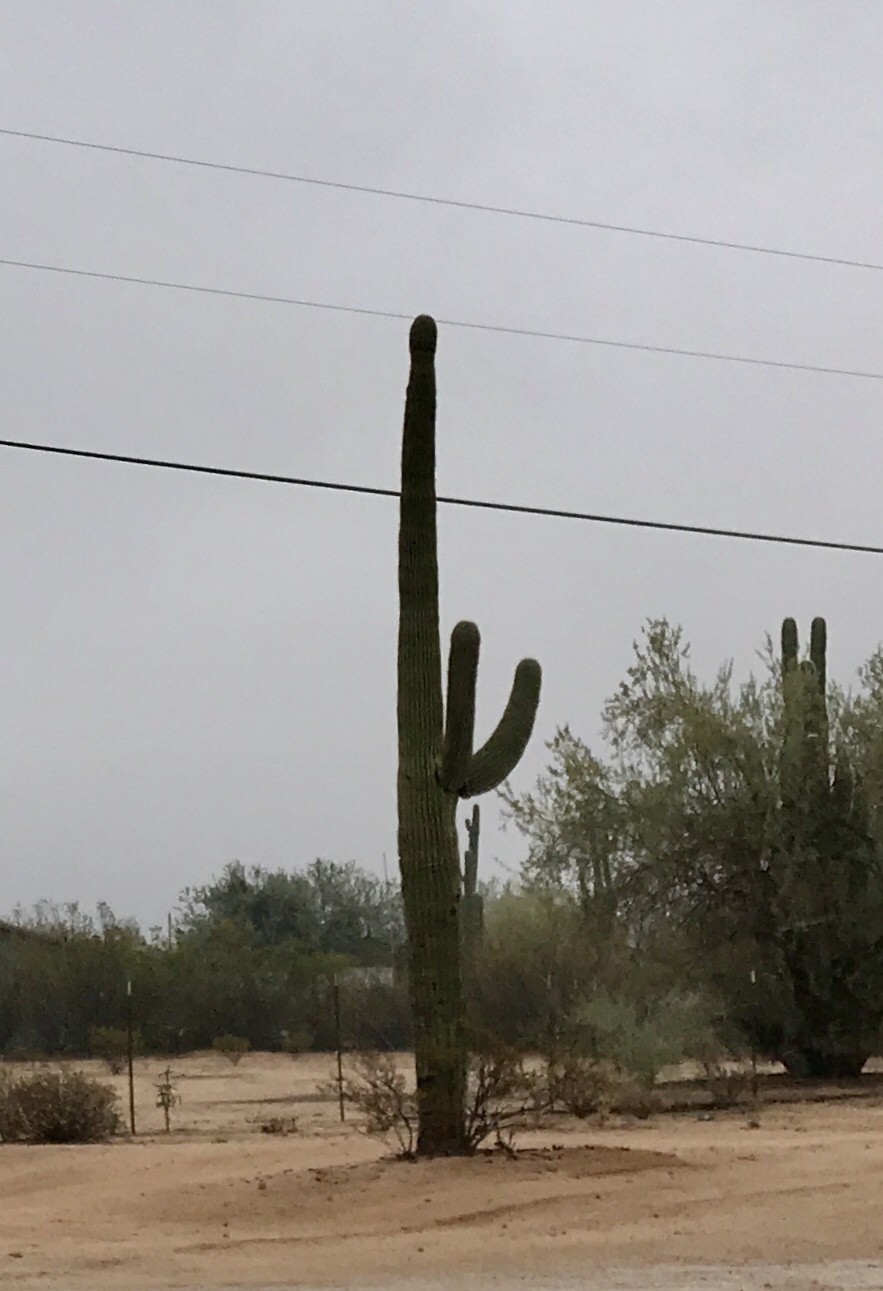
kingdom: Plantae
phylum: Tracheophyta
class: Magnoliopsida
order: Caryophyllales
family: Cactaceae
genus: Carnegiea
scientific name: Carnegiea gigantea
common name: Saguaro
